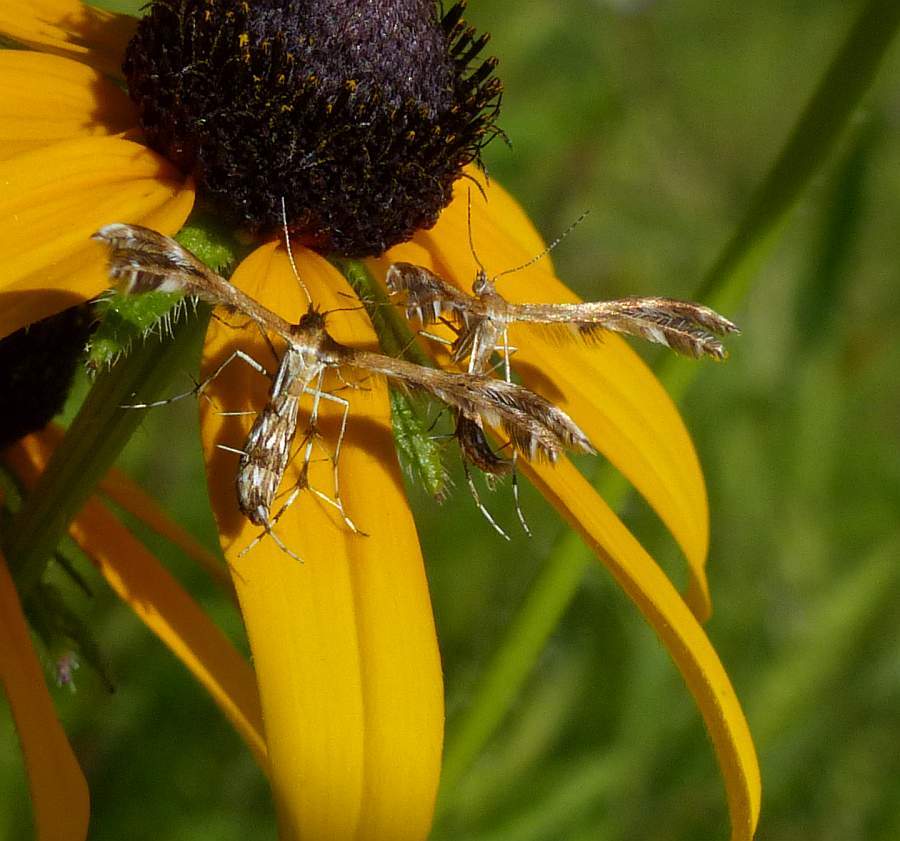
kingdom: Animalia
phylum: Arthropoda
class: Insecta
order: Lepidoptera
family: Pterophoridae
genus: Dejongia
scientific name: Dejongia lobidactylus
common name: Lobed plume moth
